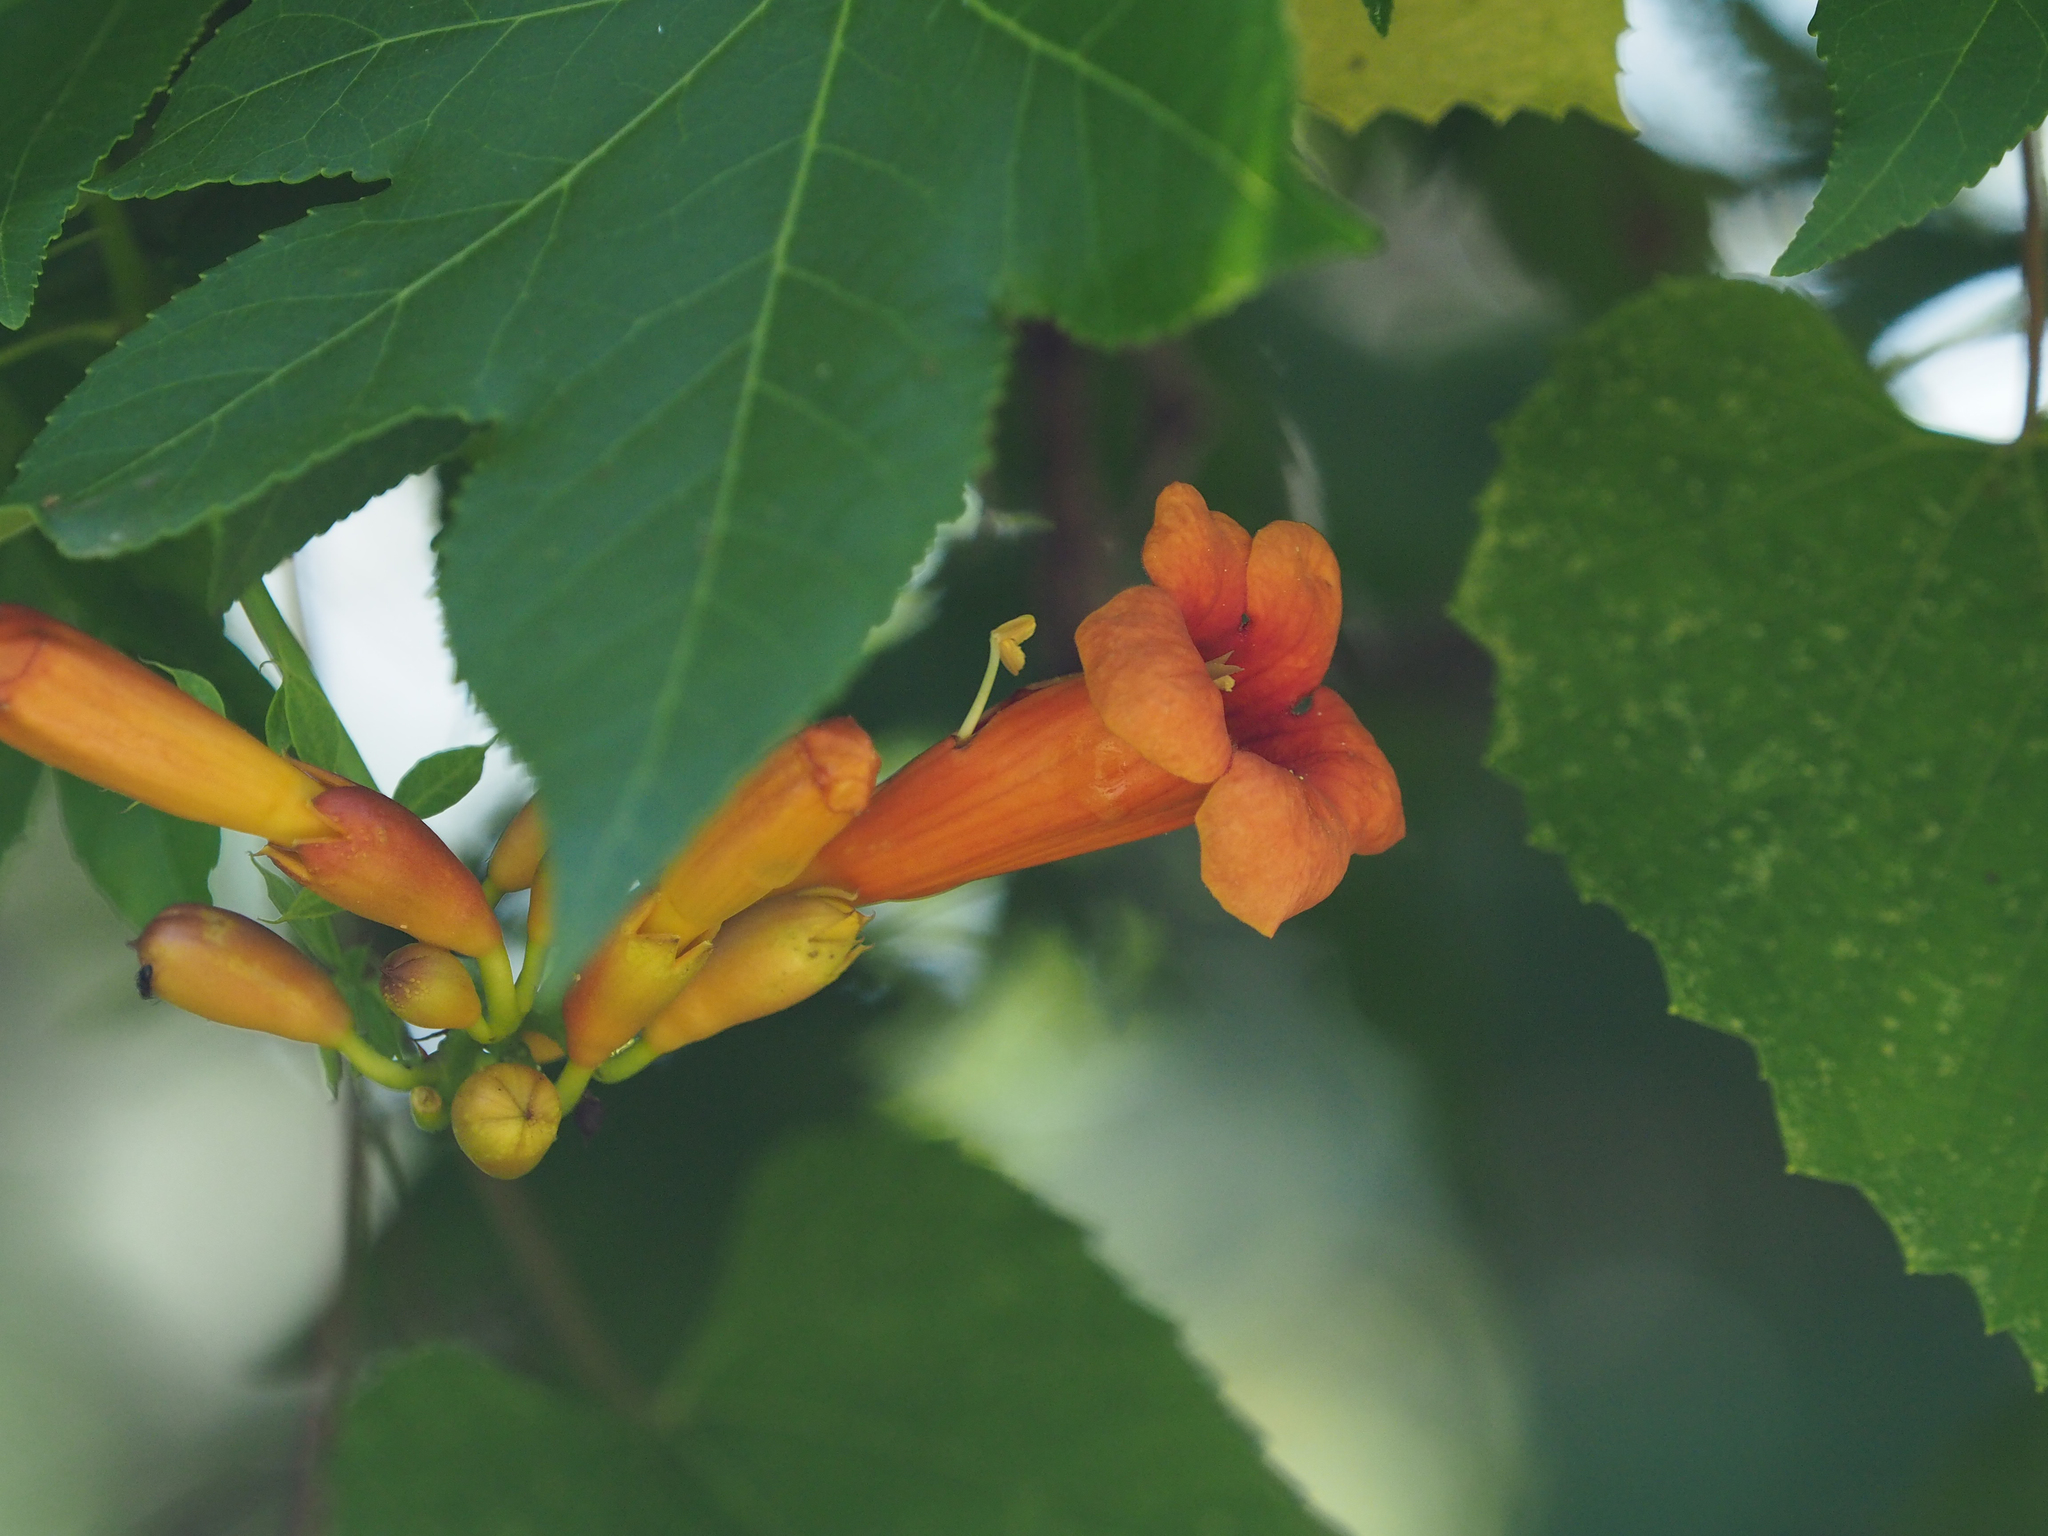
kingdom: Plantae
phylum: Tracheophyta
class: Magnoliopsida
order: Lamiales
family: Bignoniaceae
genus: Campsis
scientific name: Campsis radicans
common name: Trumpet-creeper
